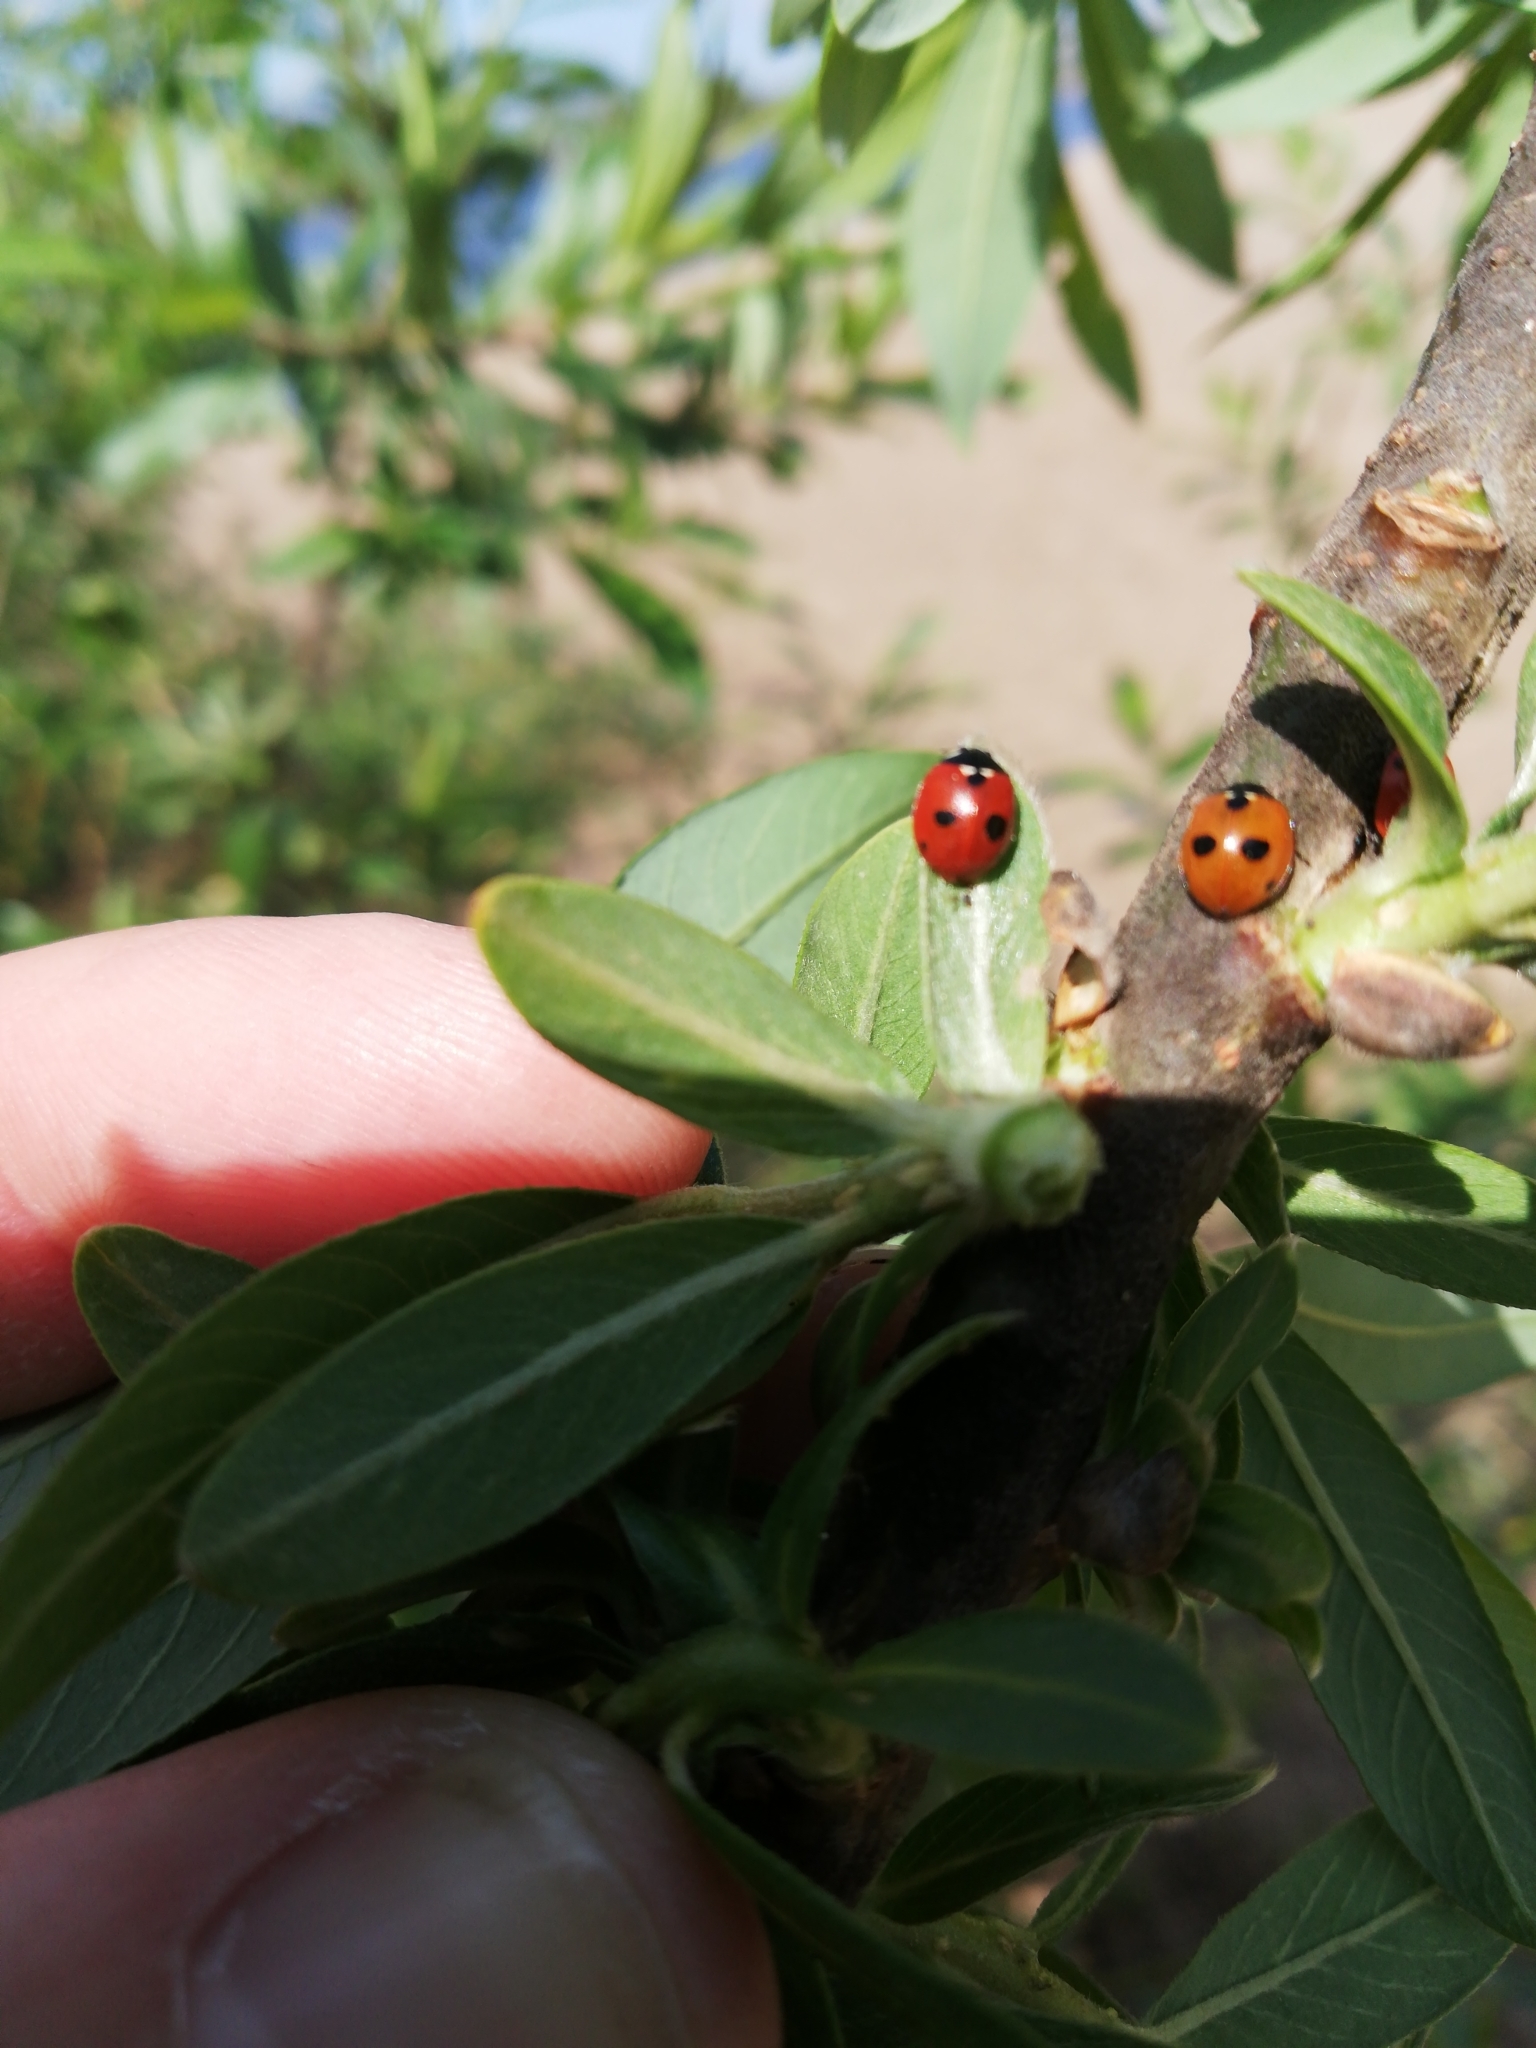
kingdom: Animalia
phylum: Arthropoda
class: Insecta
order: Coleoptera
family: Coccinellidae
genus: Coccinella
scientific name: Coccinella quinquepunctata
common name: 5-spot ladybird
